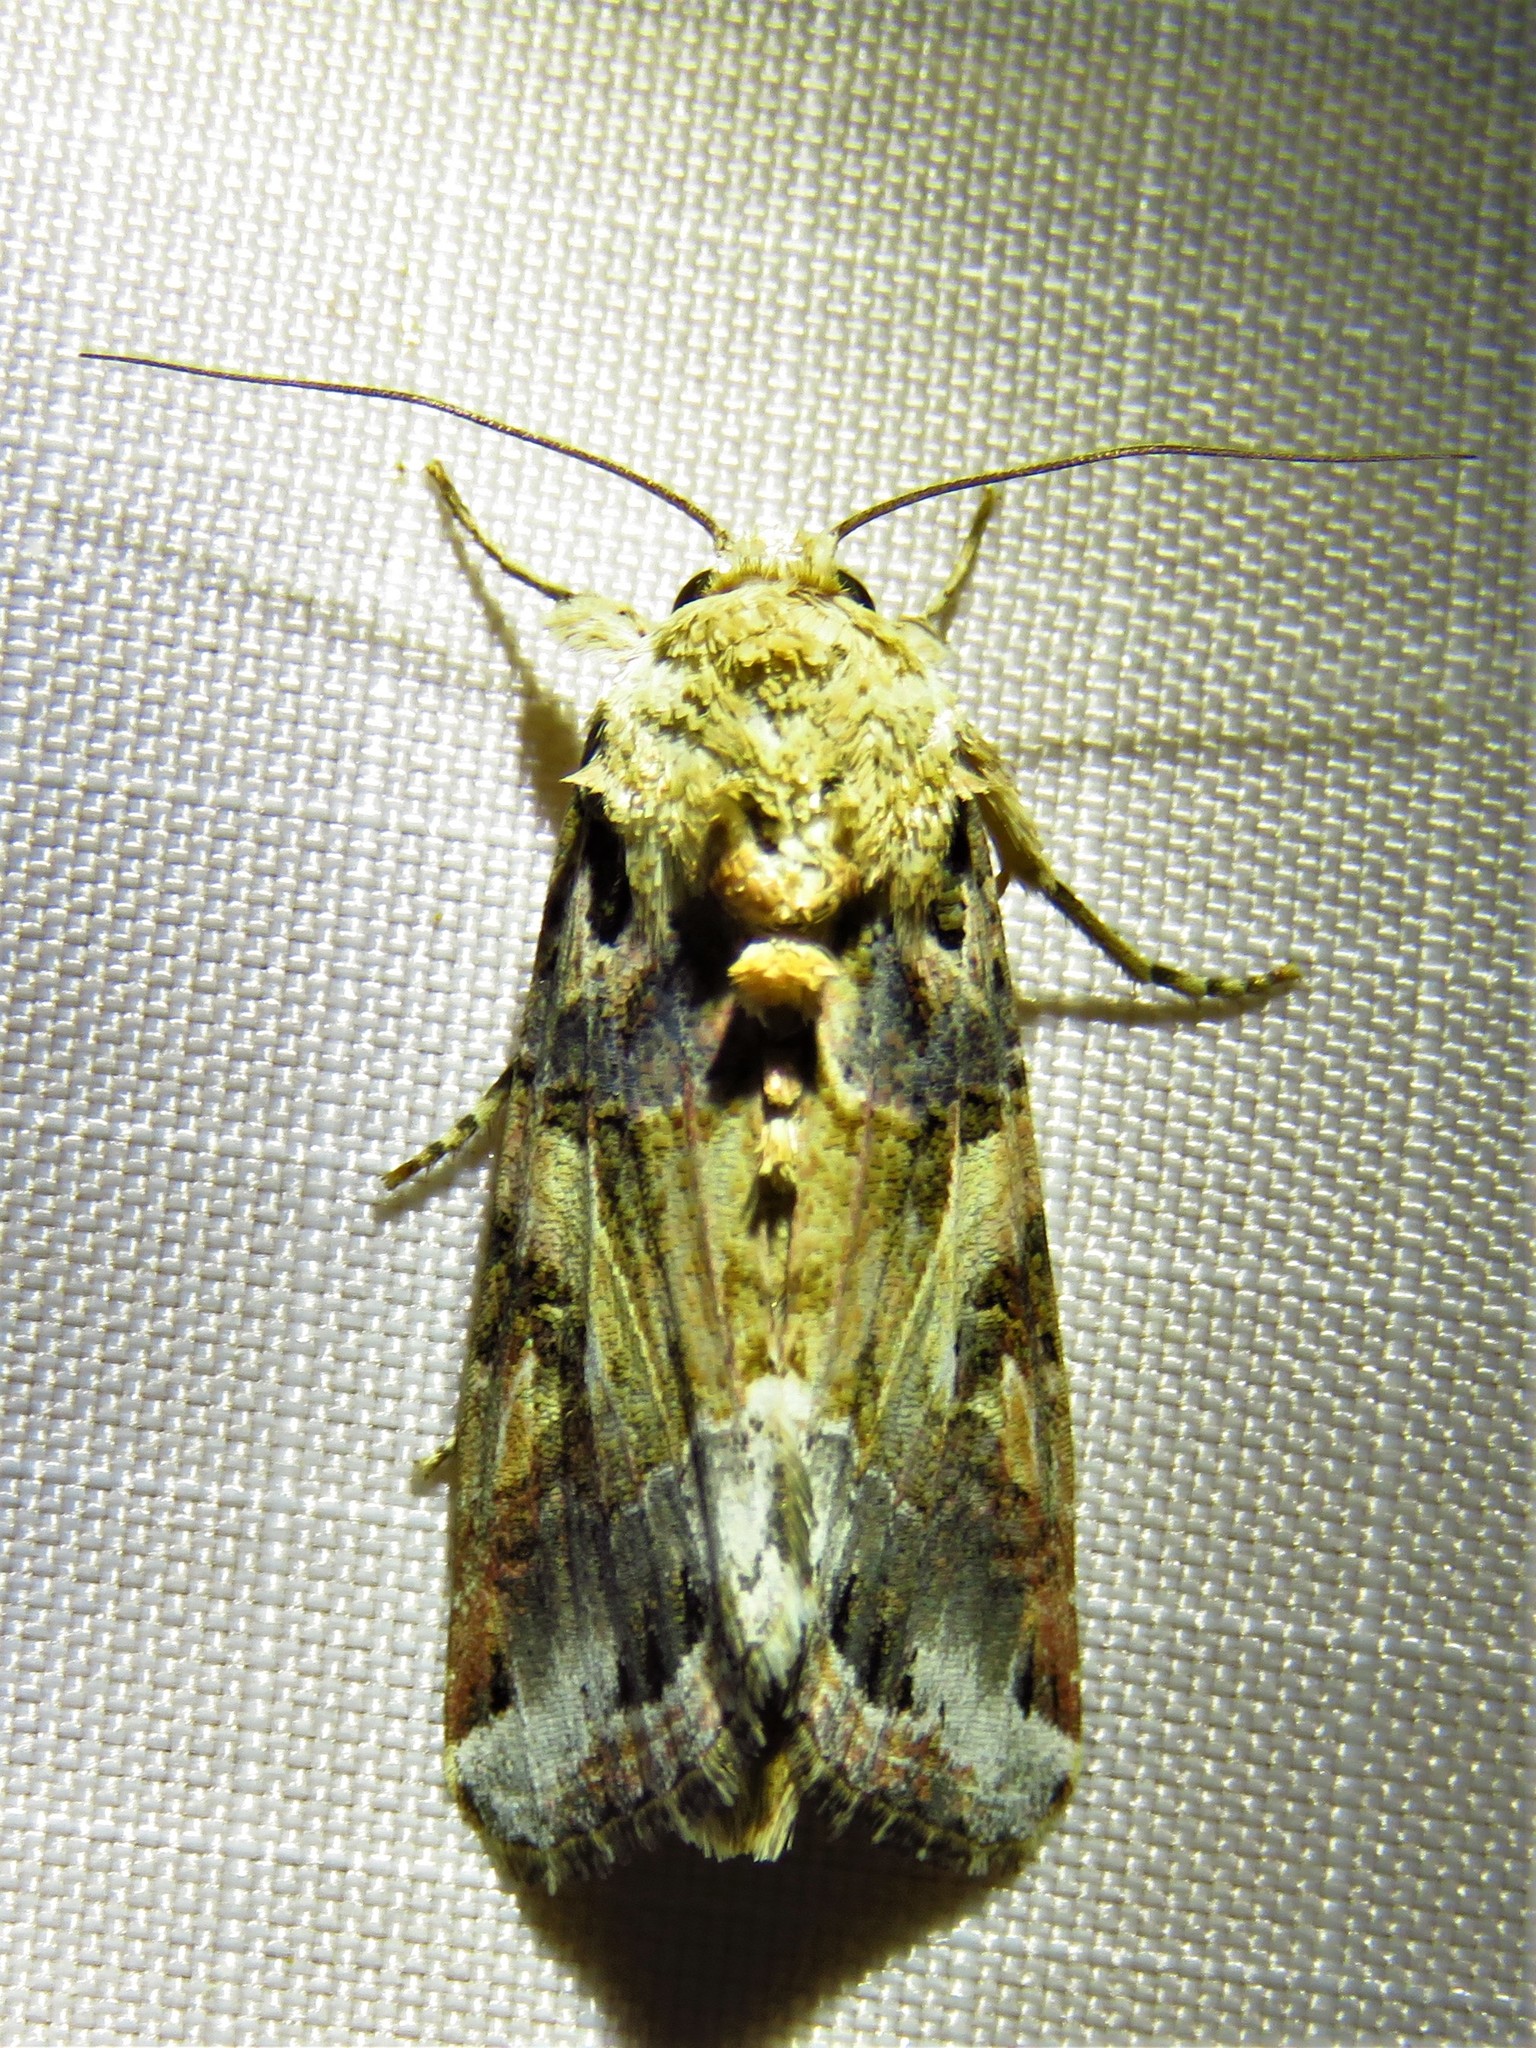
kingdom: Animalia
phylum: Arthropoda
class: Insecta
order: Lepidoptera
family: Noctuidae
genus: Spodoptera
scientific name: Spodoptera ornithogalli
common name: Yellow-striped armyworm
